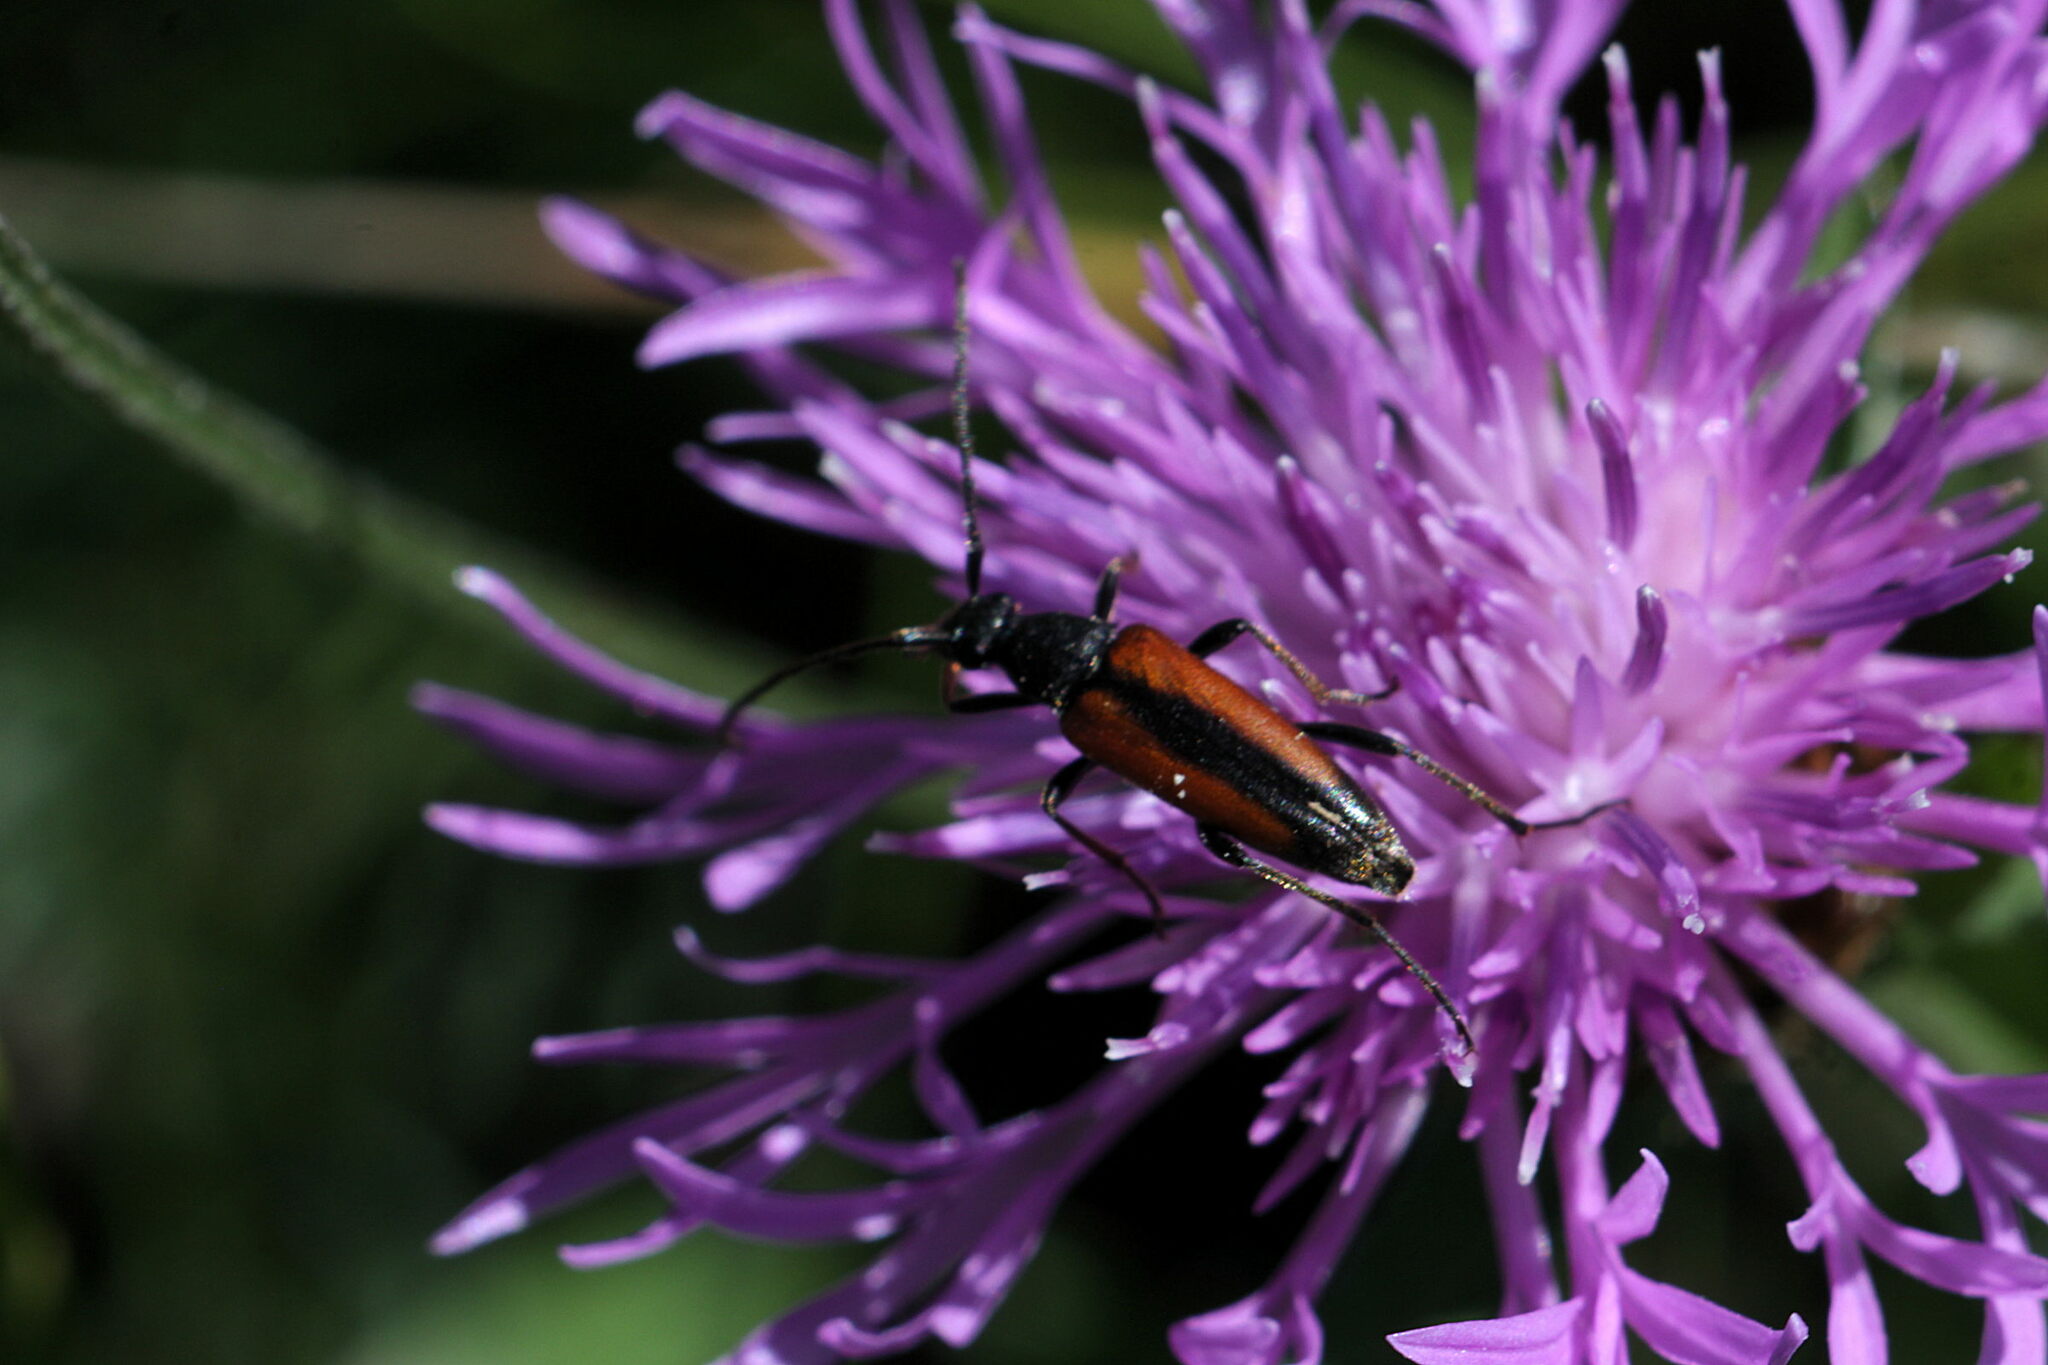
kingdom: Animalia
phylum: Arthropoda
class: Insecta
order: Coleoptera
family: Cerambycidae
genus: Stenurella
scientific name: Stenurella melanura
